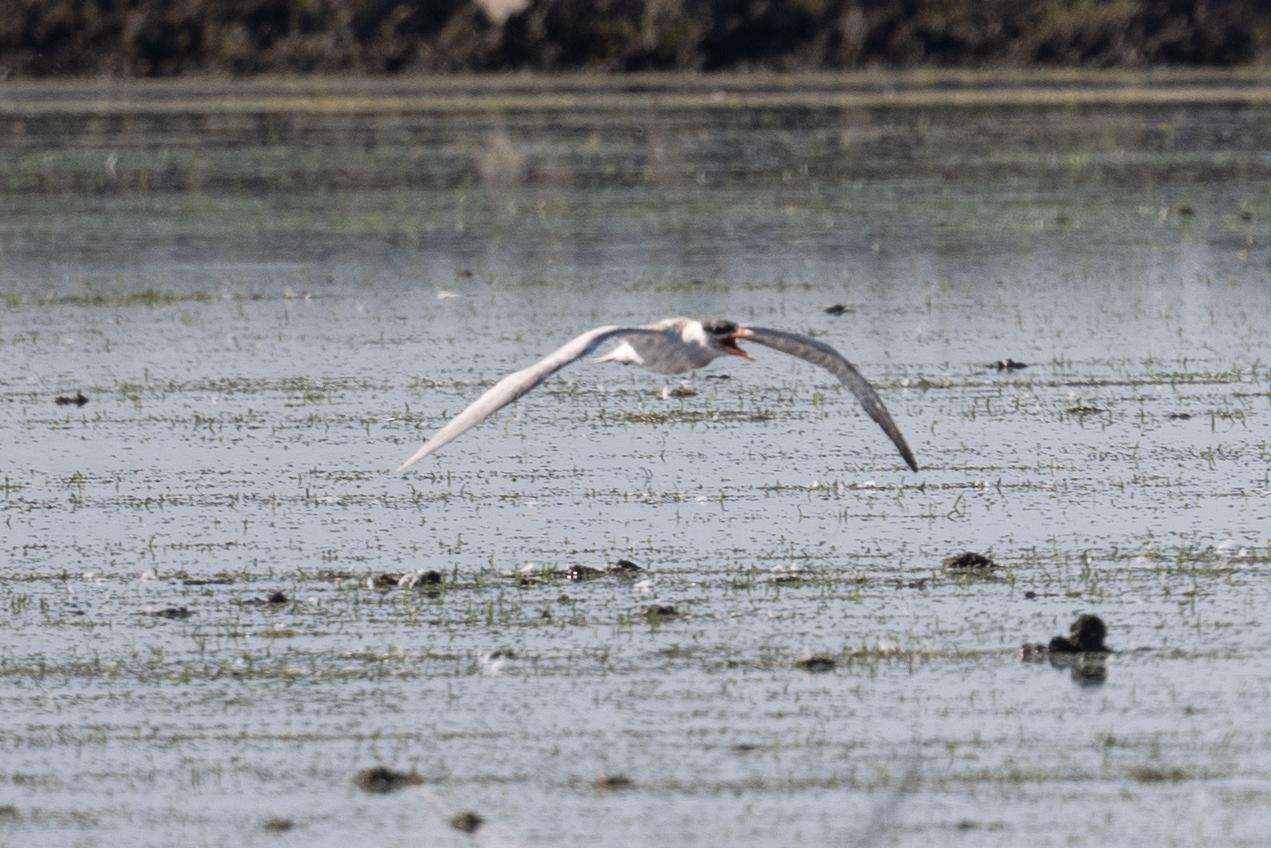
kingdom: Animalia
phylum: Chordata
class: Aves
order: Charadriiformes
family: Laridae
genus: Hydroprogne
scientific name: Hydroprogne caspia
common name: Caspian tern
